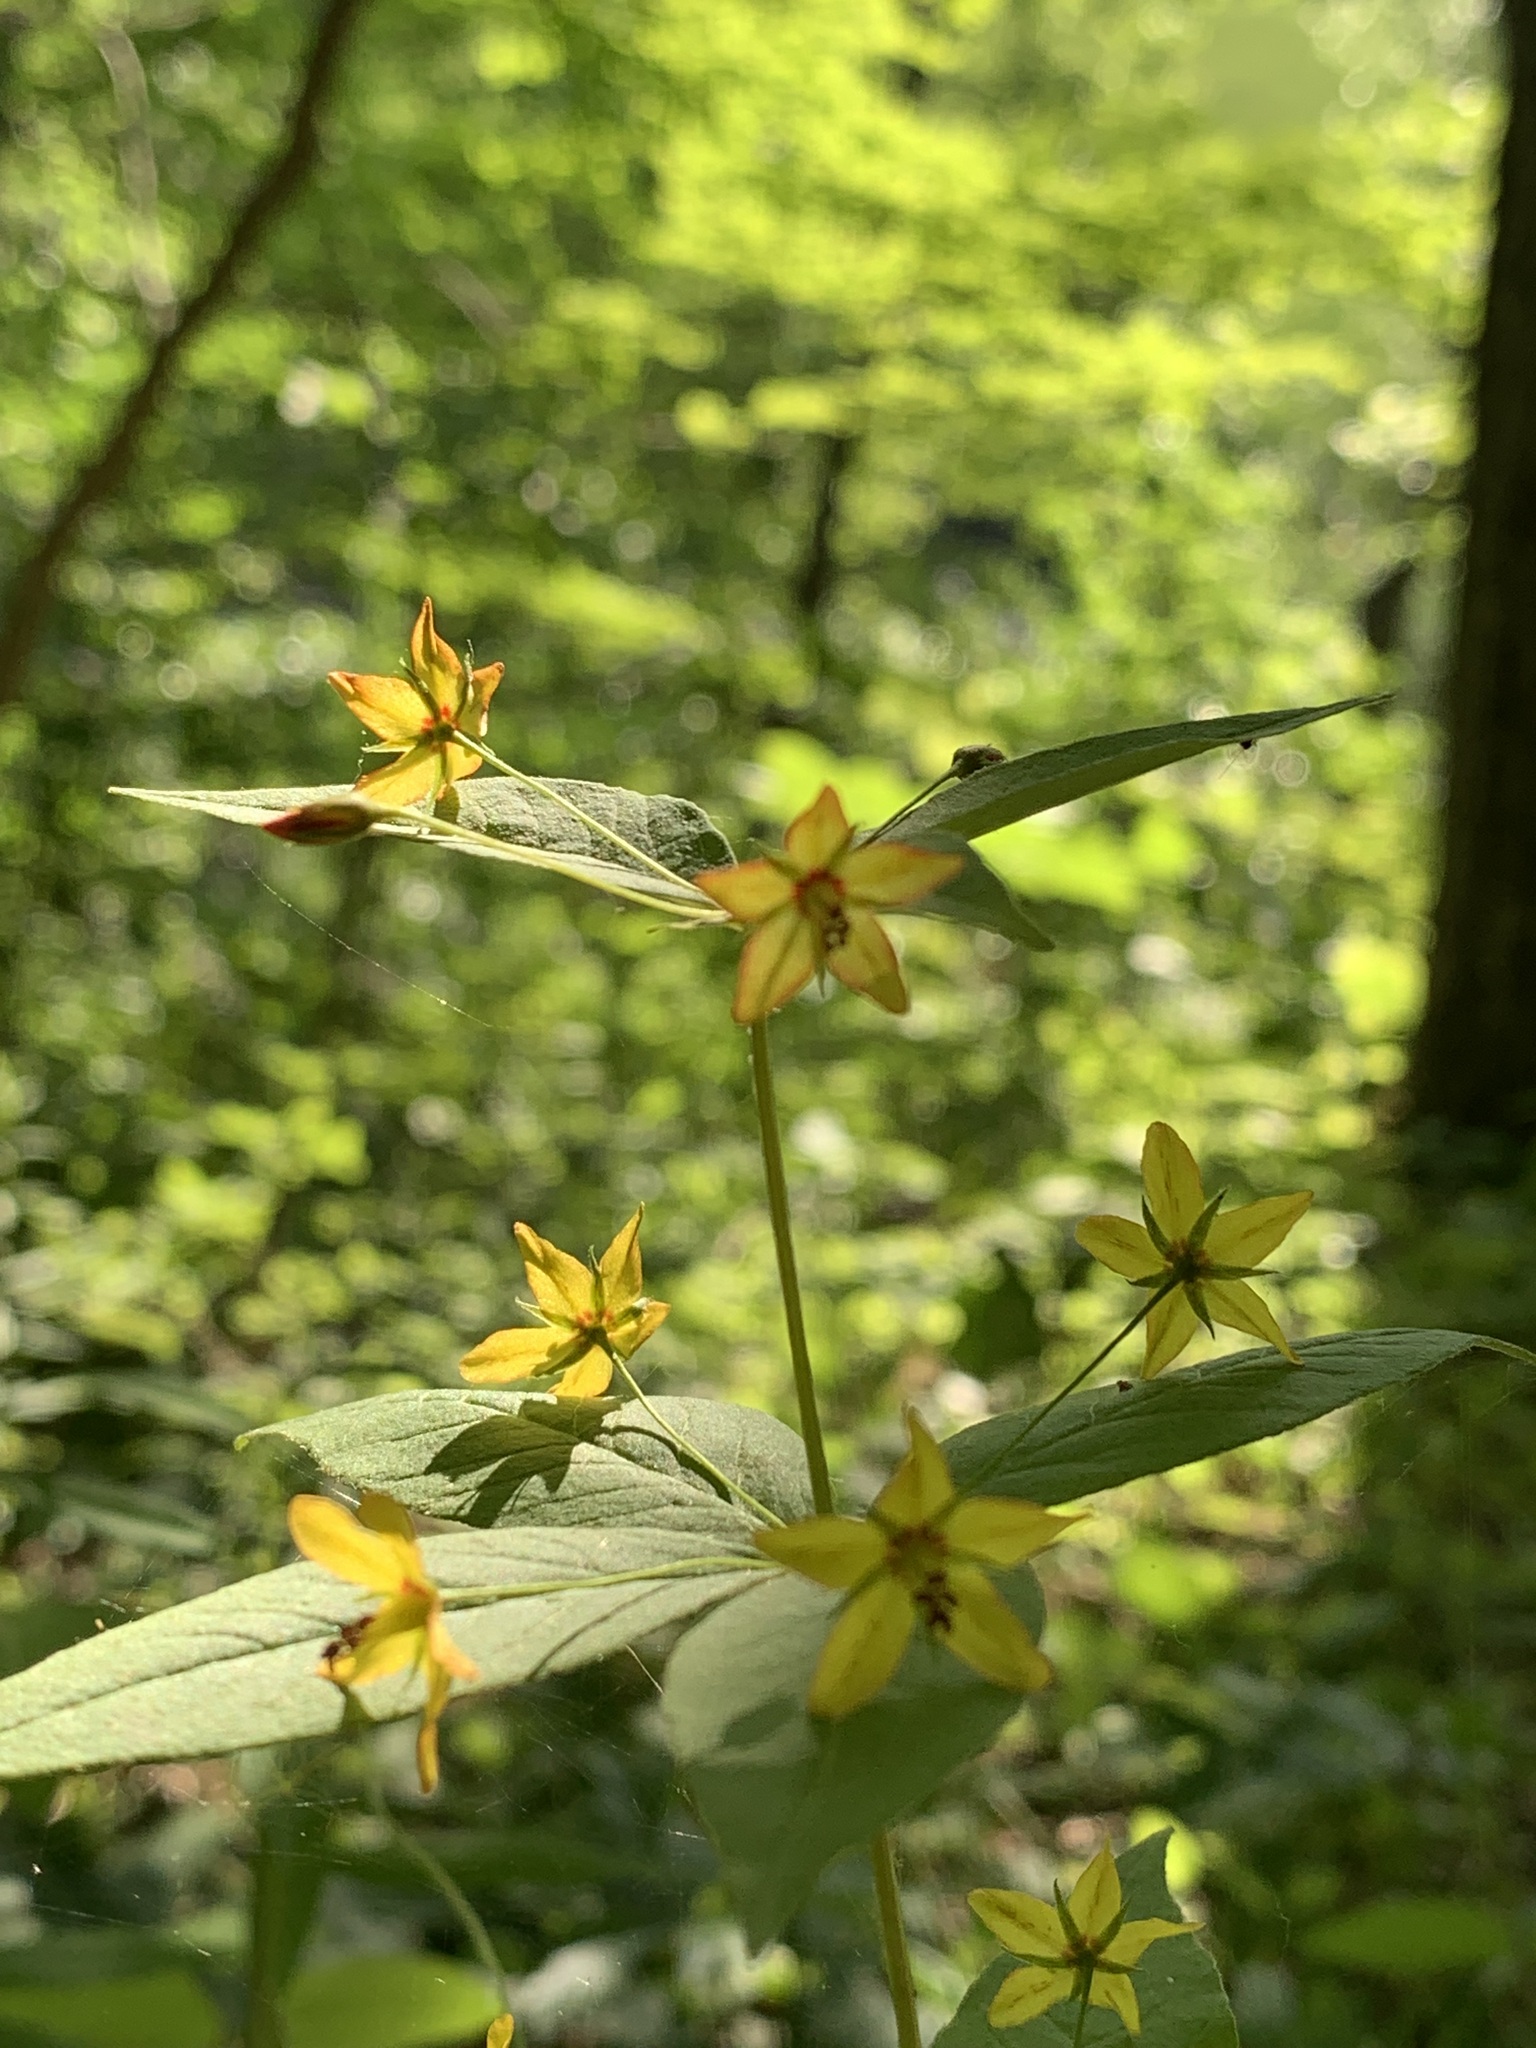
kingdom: Plantae
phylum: Tracheophyta
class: Magnoliopsida
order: Ericales
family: Primulaceae
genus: Lysimachia
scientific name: Lysimachia quadrifolia
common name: Whorled loosestrife
